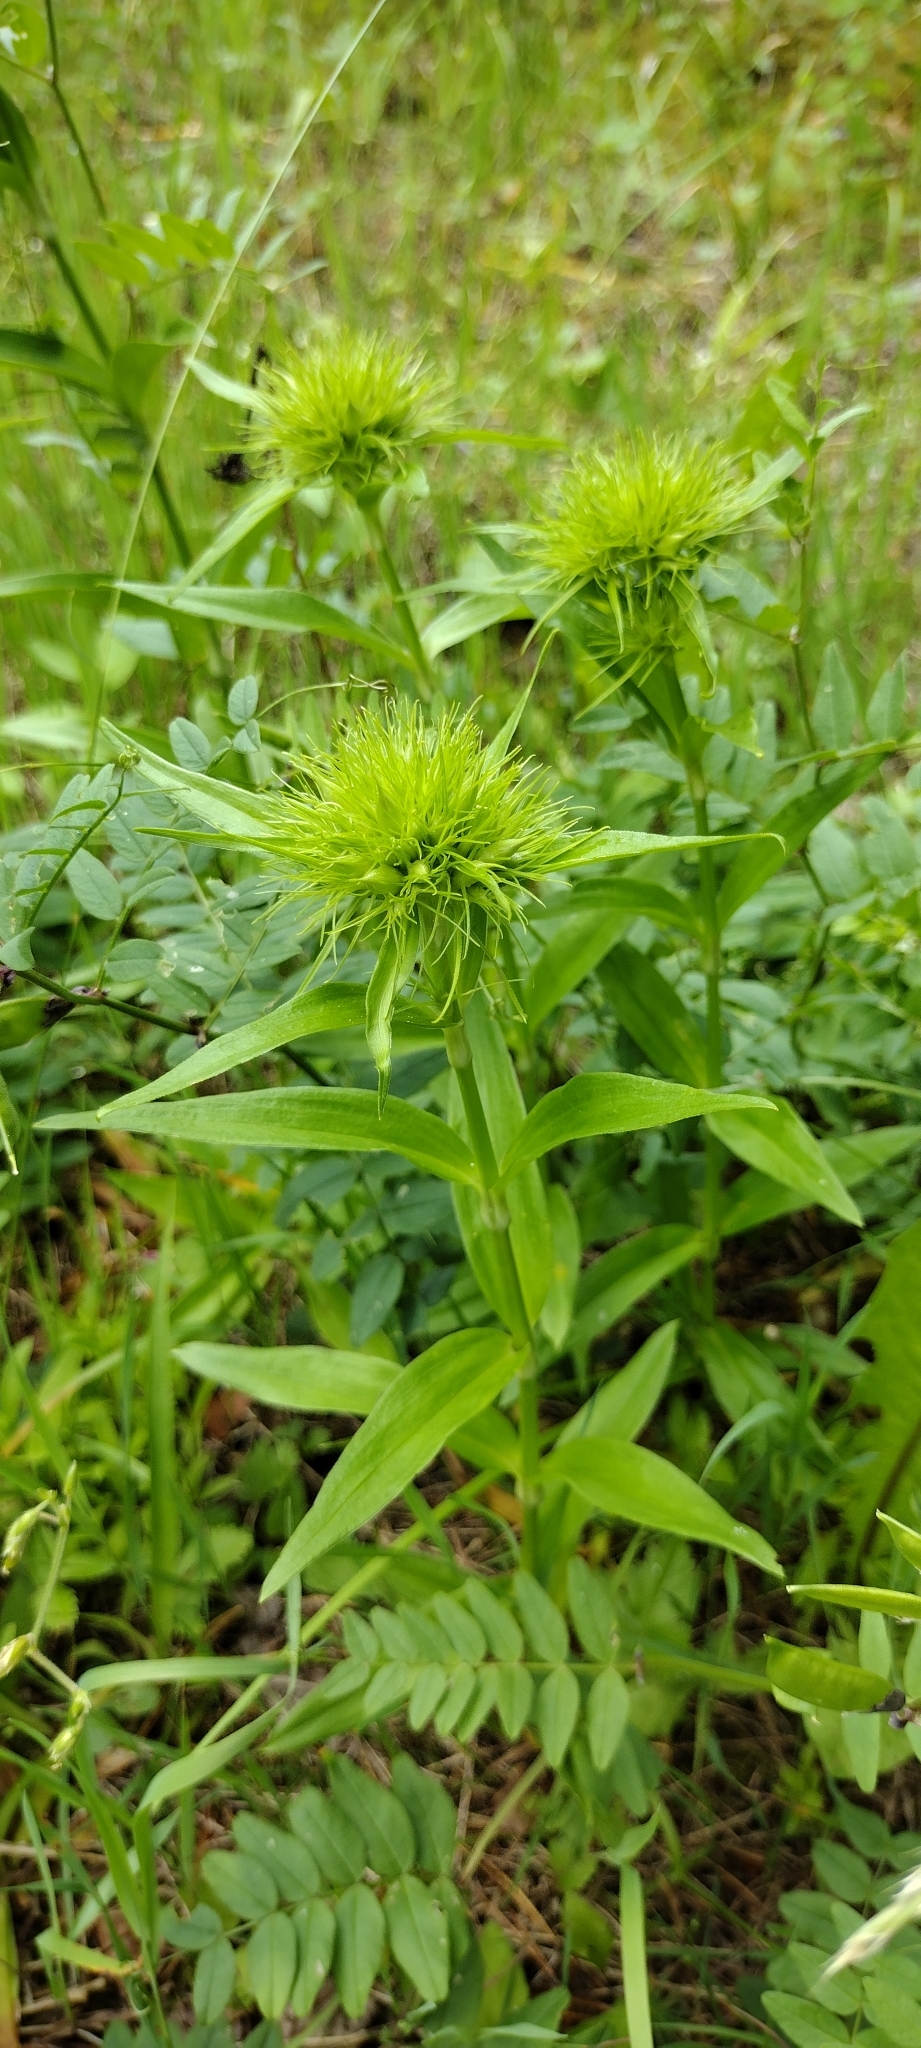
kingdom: Plantae
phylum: Tracheophyta
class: Magnoliopsida
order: Caryophyllales
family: Caryophyllaceae
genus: Dianthus
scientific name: Dianthus barbatus
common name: Sweet-william
